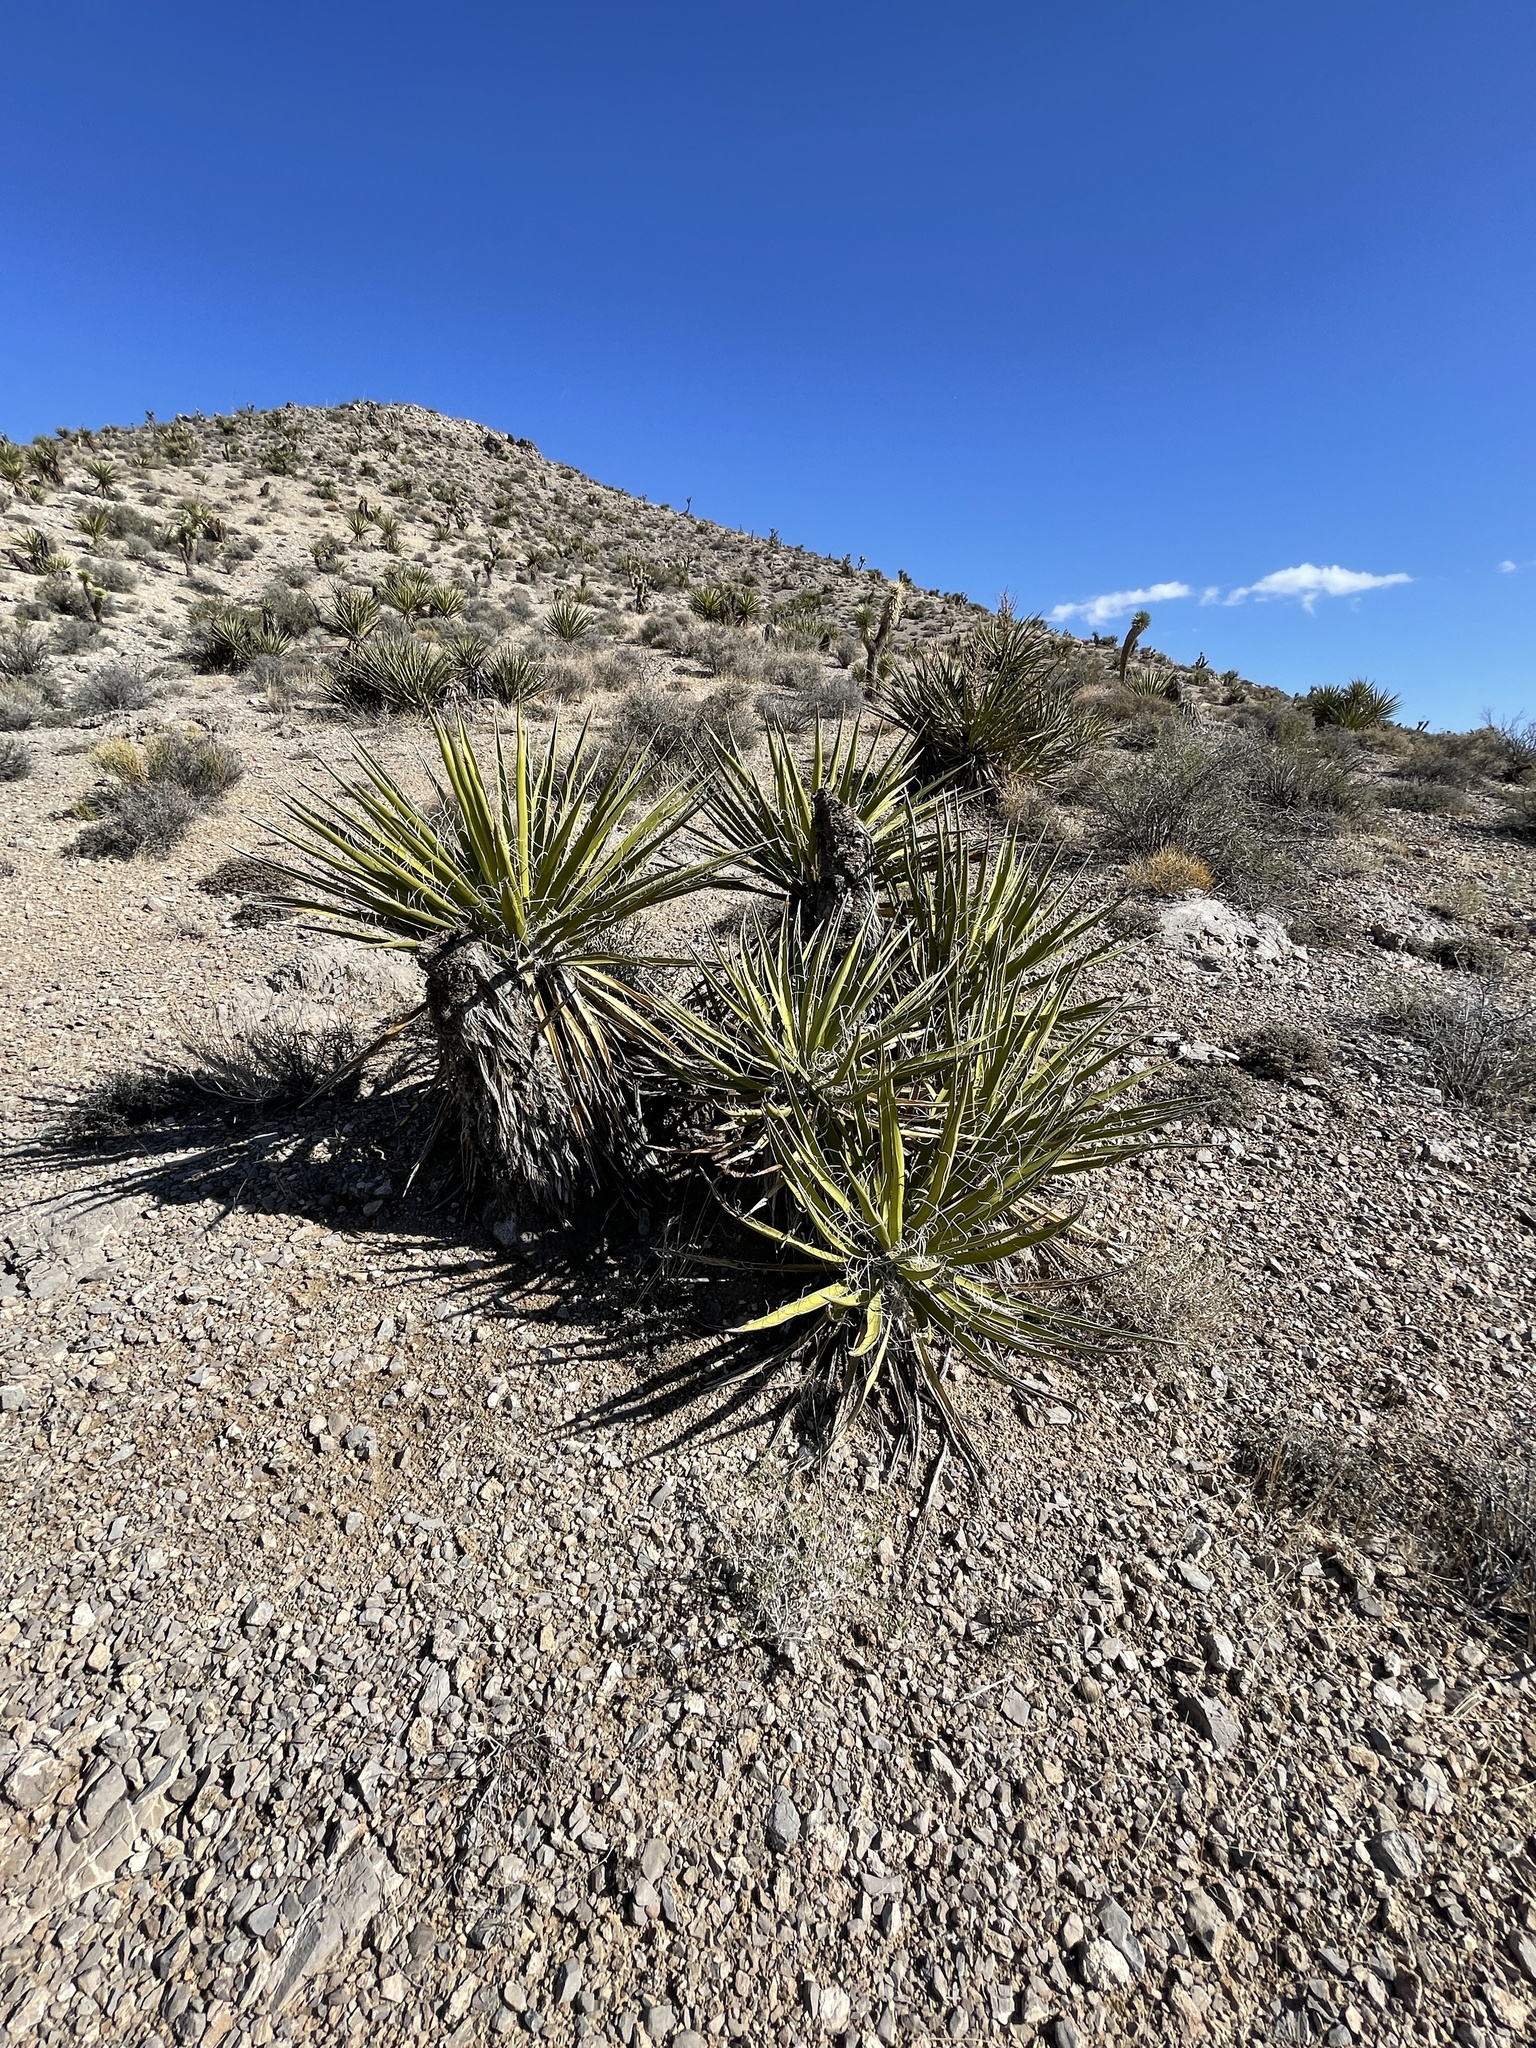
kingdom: Plantae
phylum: Tracheophyta
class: Liliopsida
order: Asparagales
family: Asparagaceae
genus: Yucca
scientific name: Yucca schidigera
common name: Mojave yucca
